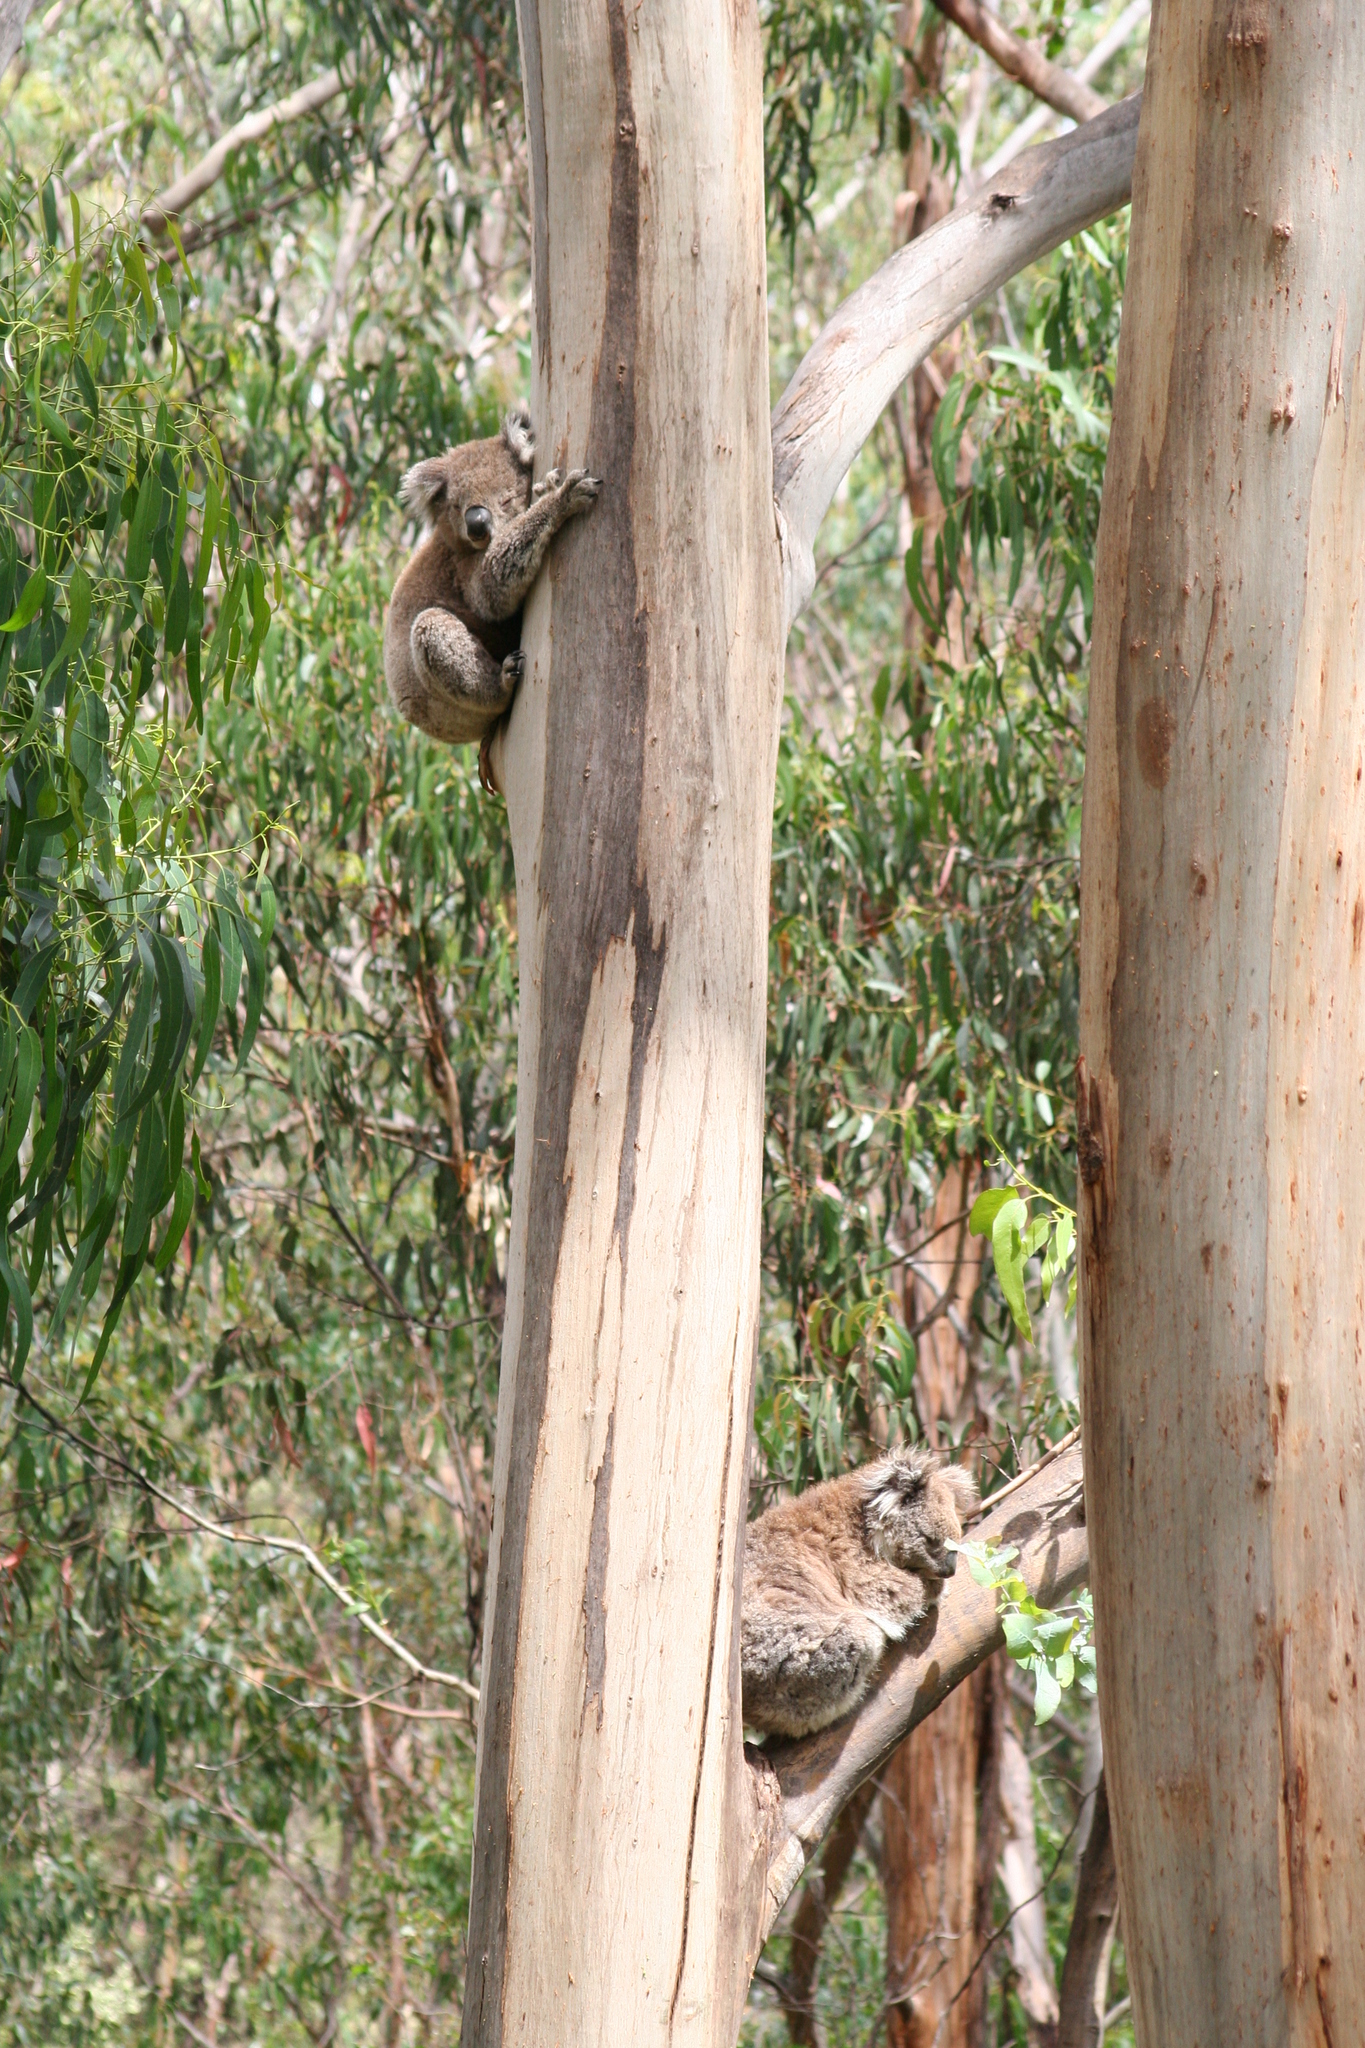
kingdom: Animalia
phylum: Chordata
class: Mammalia
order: Diprotodontia
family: Phascolarctidae
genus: Phascolarctos
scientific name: Phascolarctos cinereus
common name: Koala
